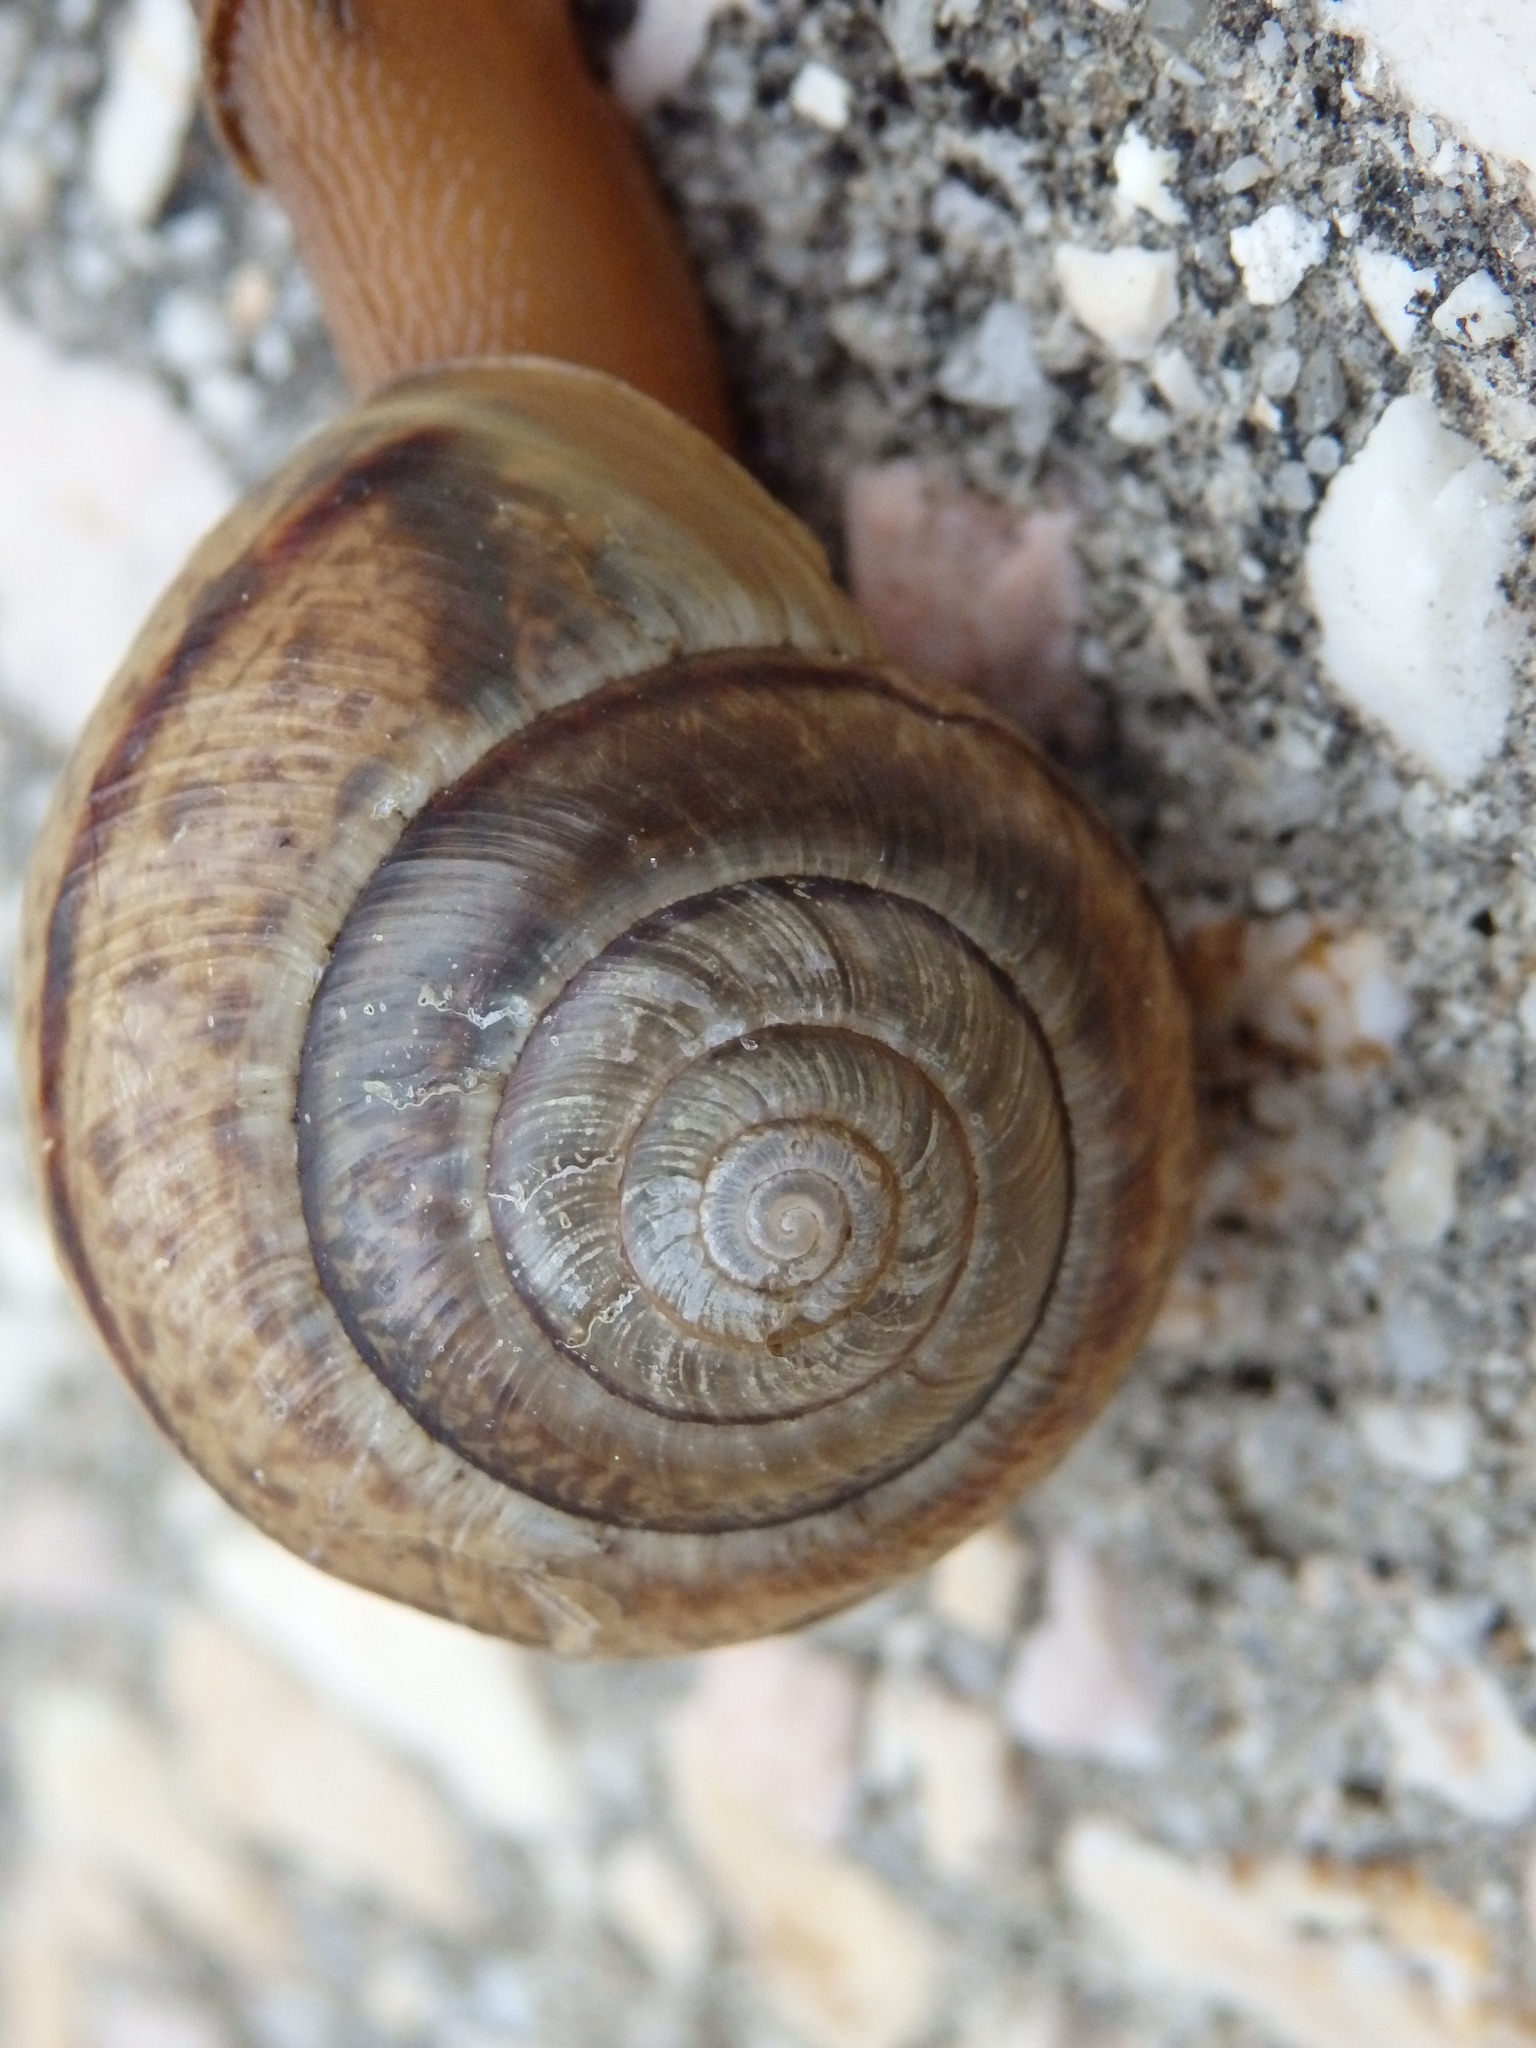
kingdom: Animalia
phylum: Mollusca
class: Gastropoda
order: Stylommatophora
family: Hygromiidae
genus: Portugala
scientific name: Portugala inchoata
